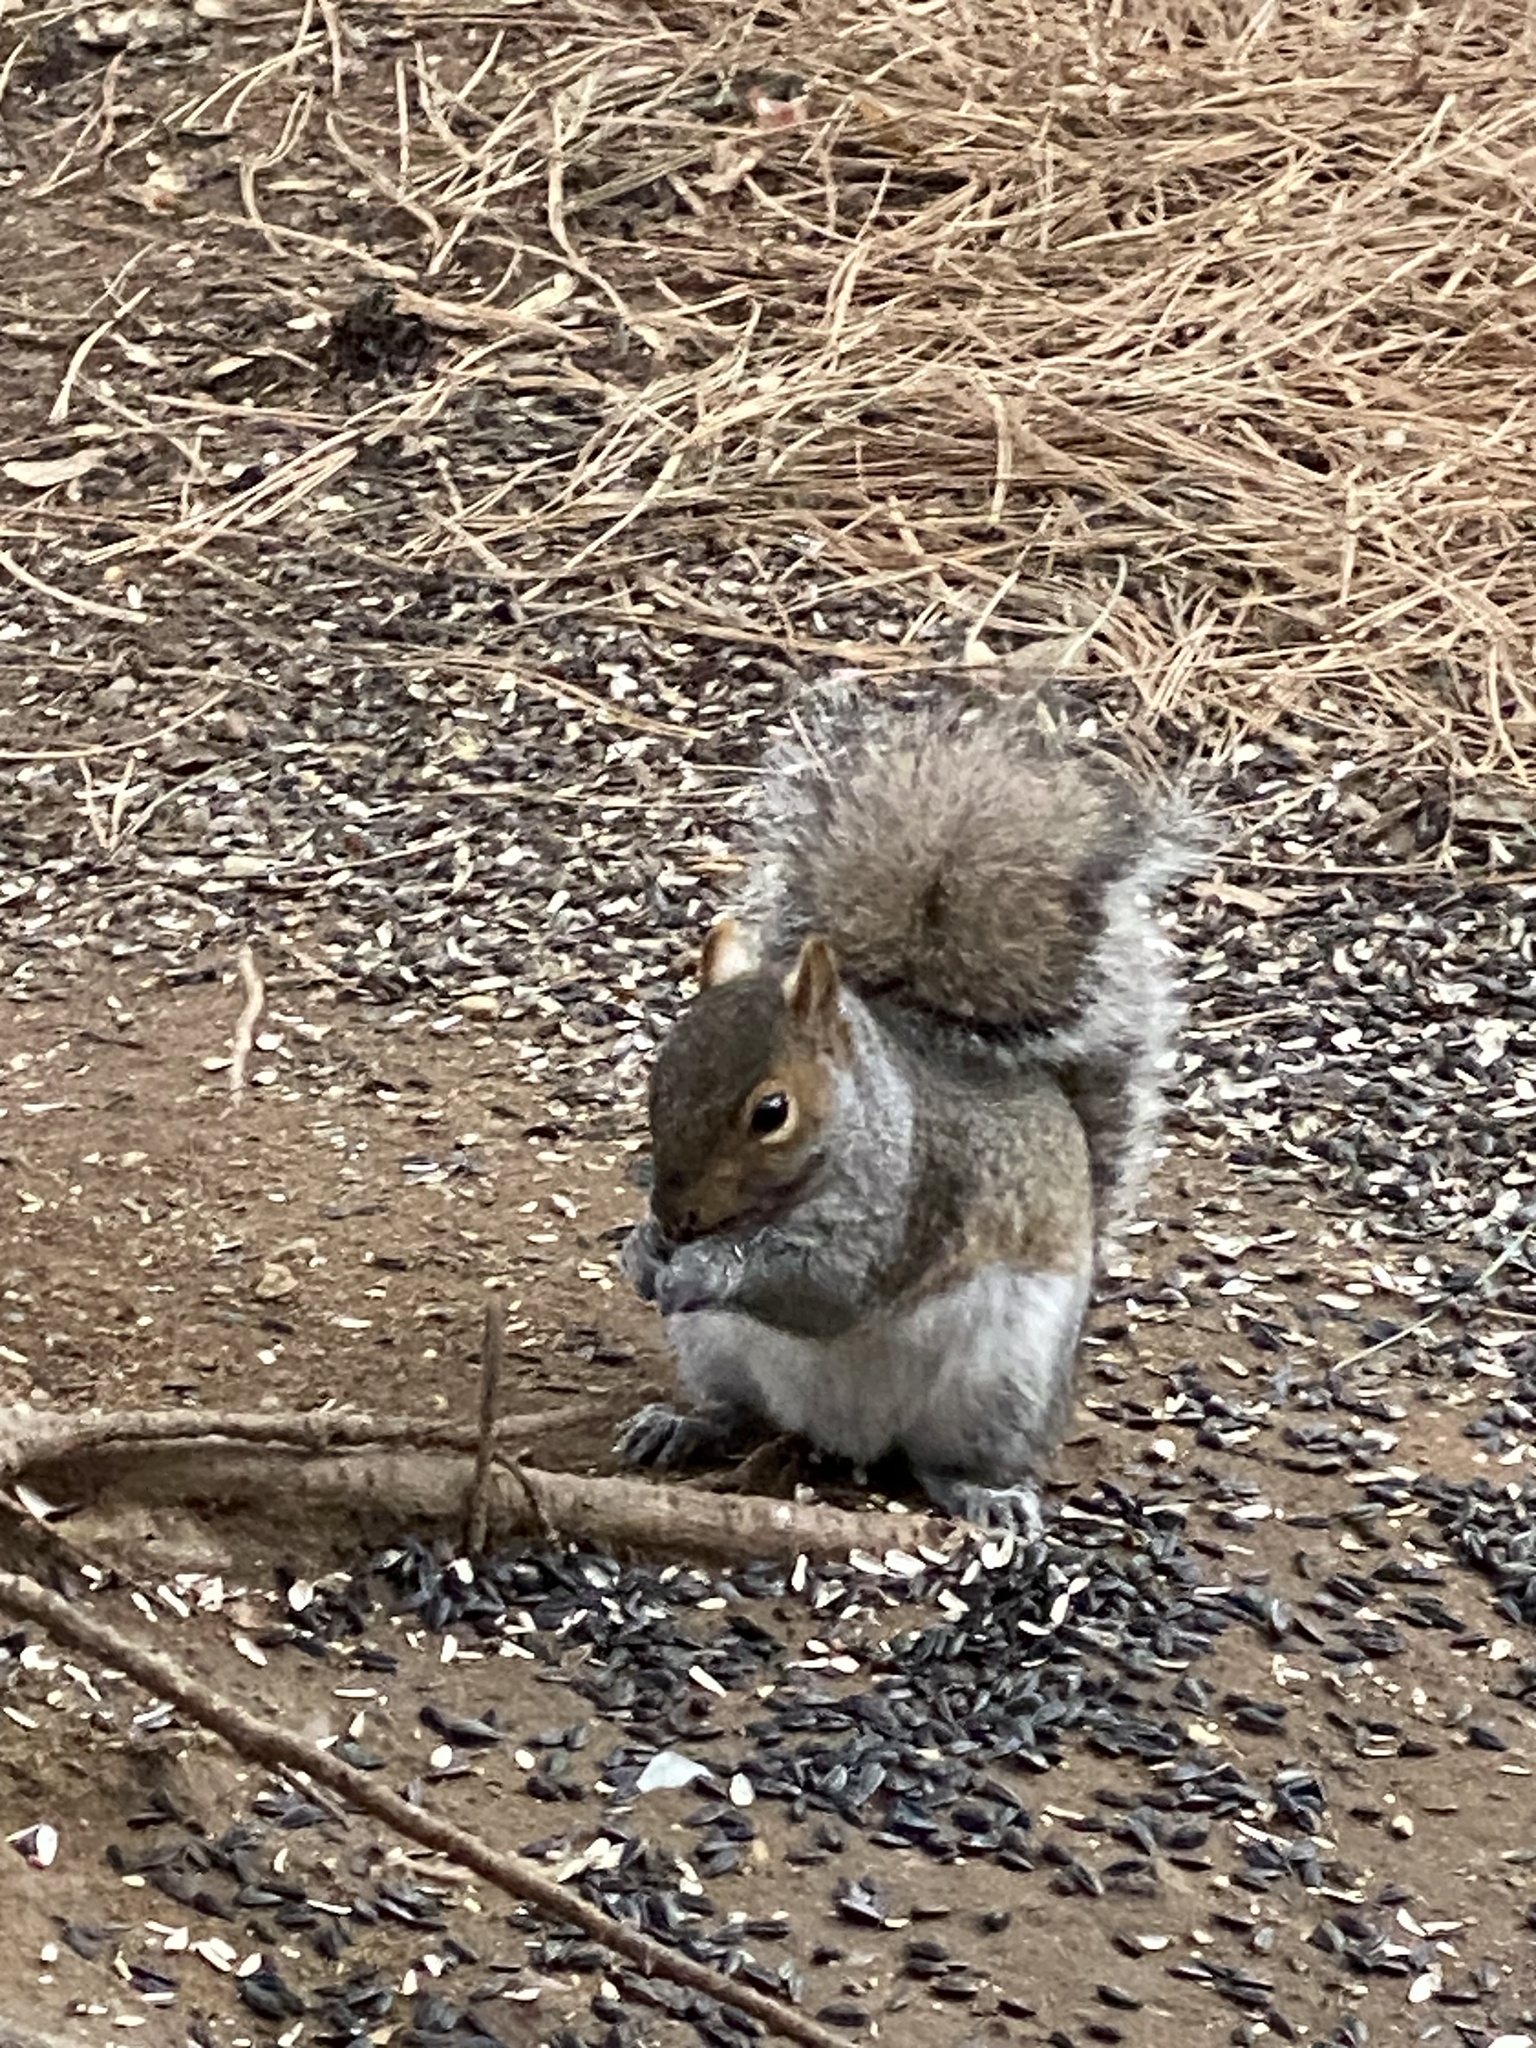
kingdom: Animalia
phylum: Chordata
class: Mammalia
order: Rodentia
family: Sciuridae
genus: Sciurus
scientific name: Sciurus carolinensis
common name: Eastern gray squirrel
